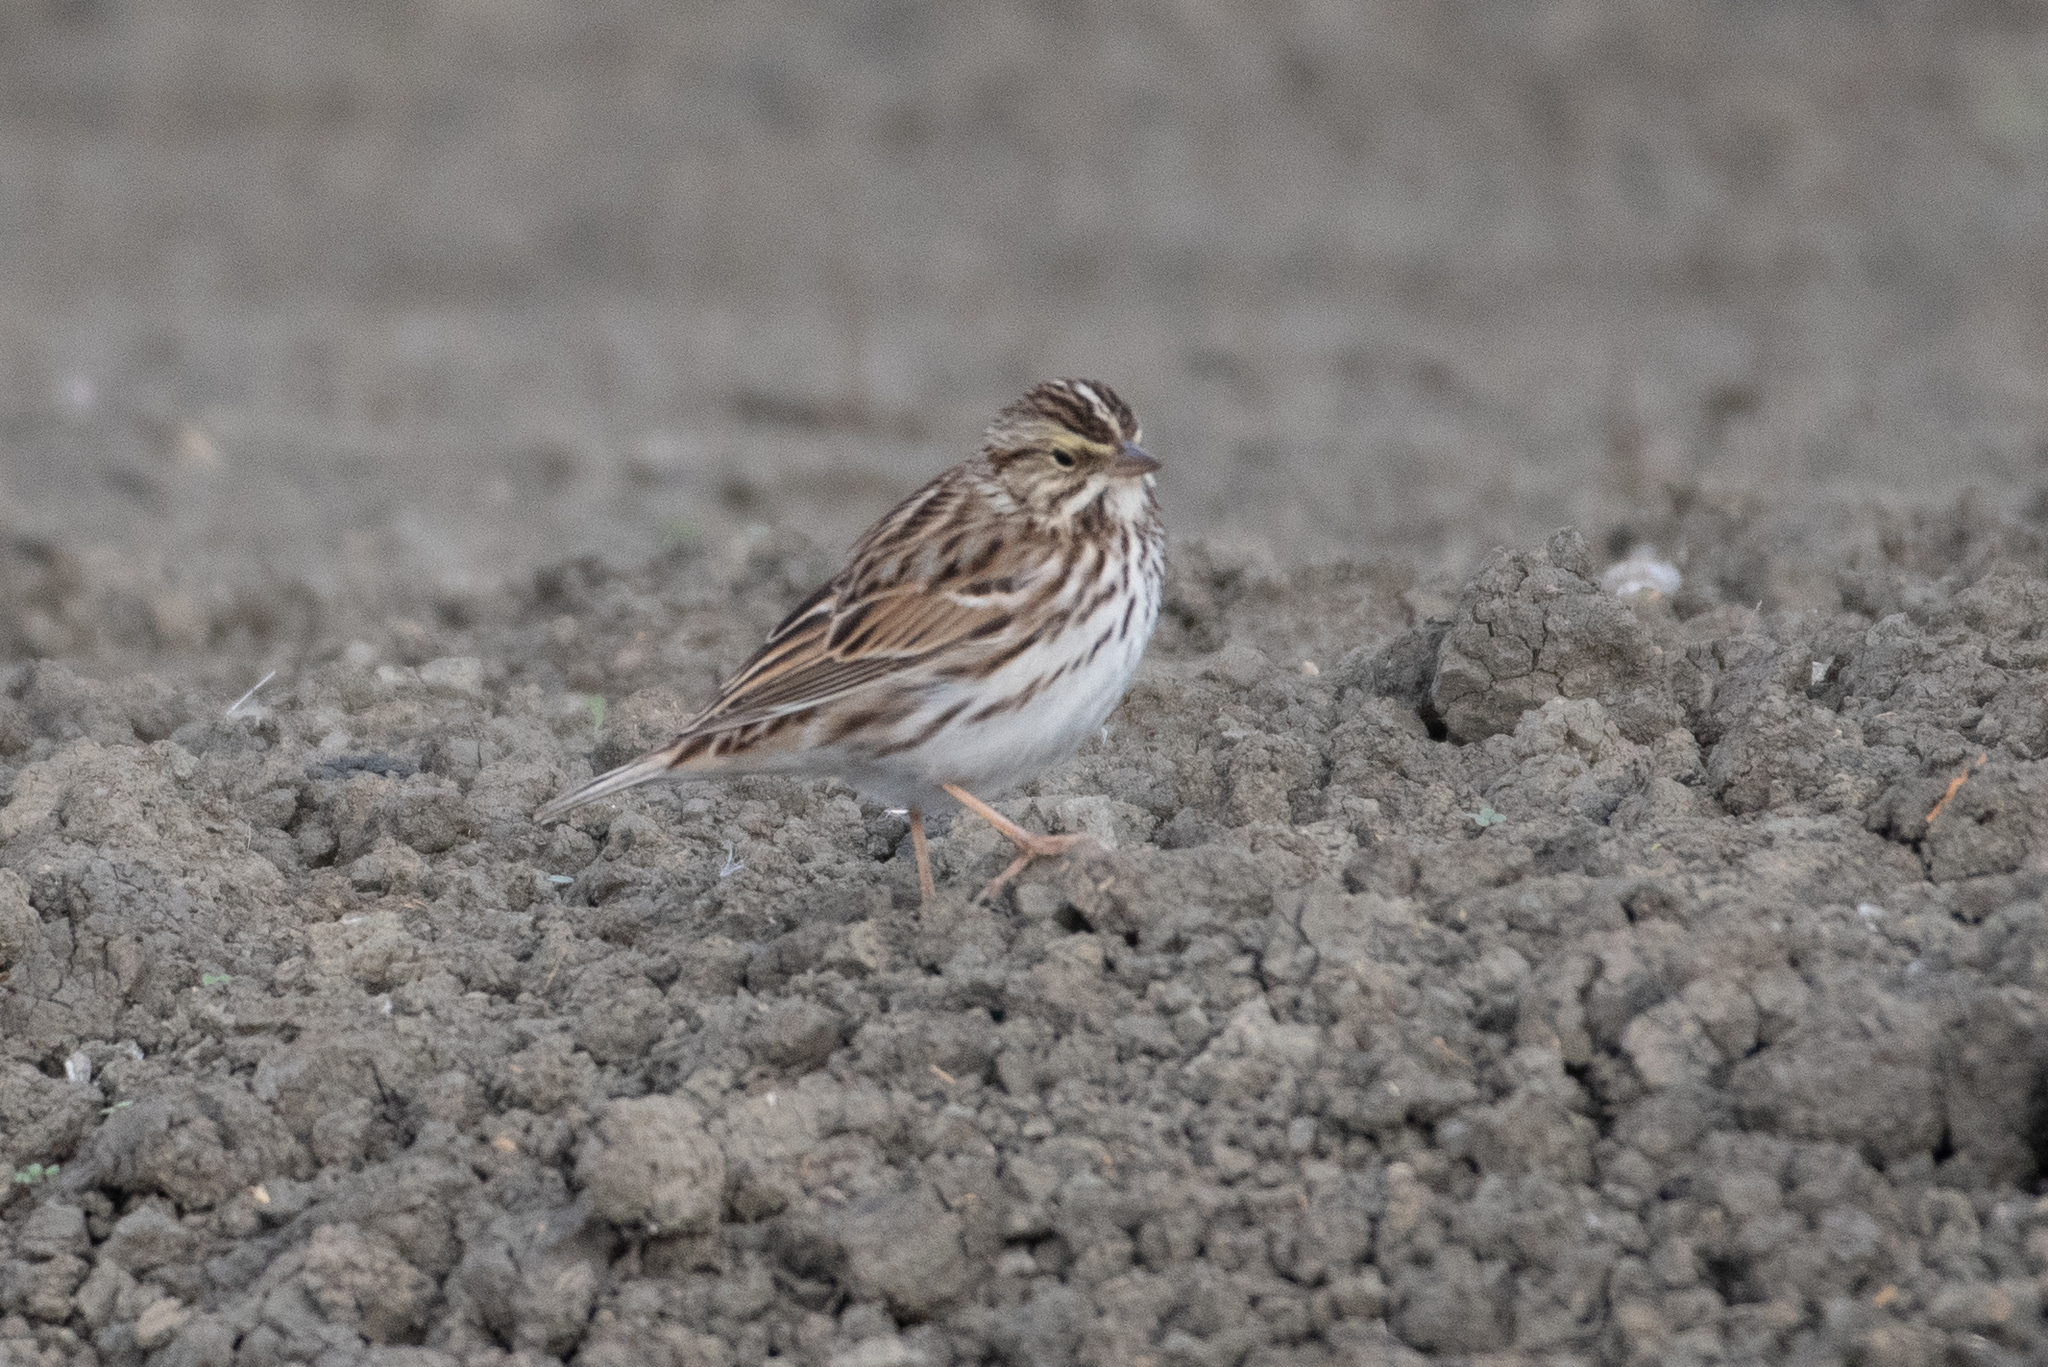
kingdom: Animalia
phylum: Chordata
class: Aves
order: Passeriformes
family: Passerellidae
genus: Passerculus
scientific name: Passerculus sandwichensis
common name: Savannah sparrow
